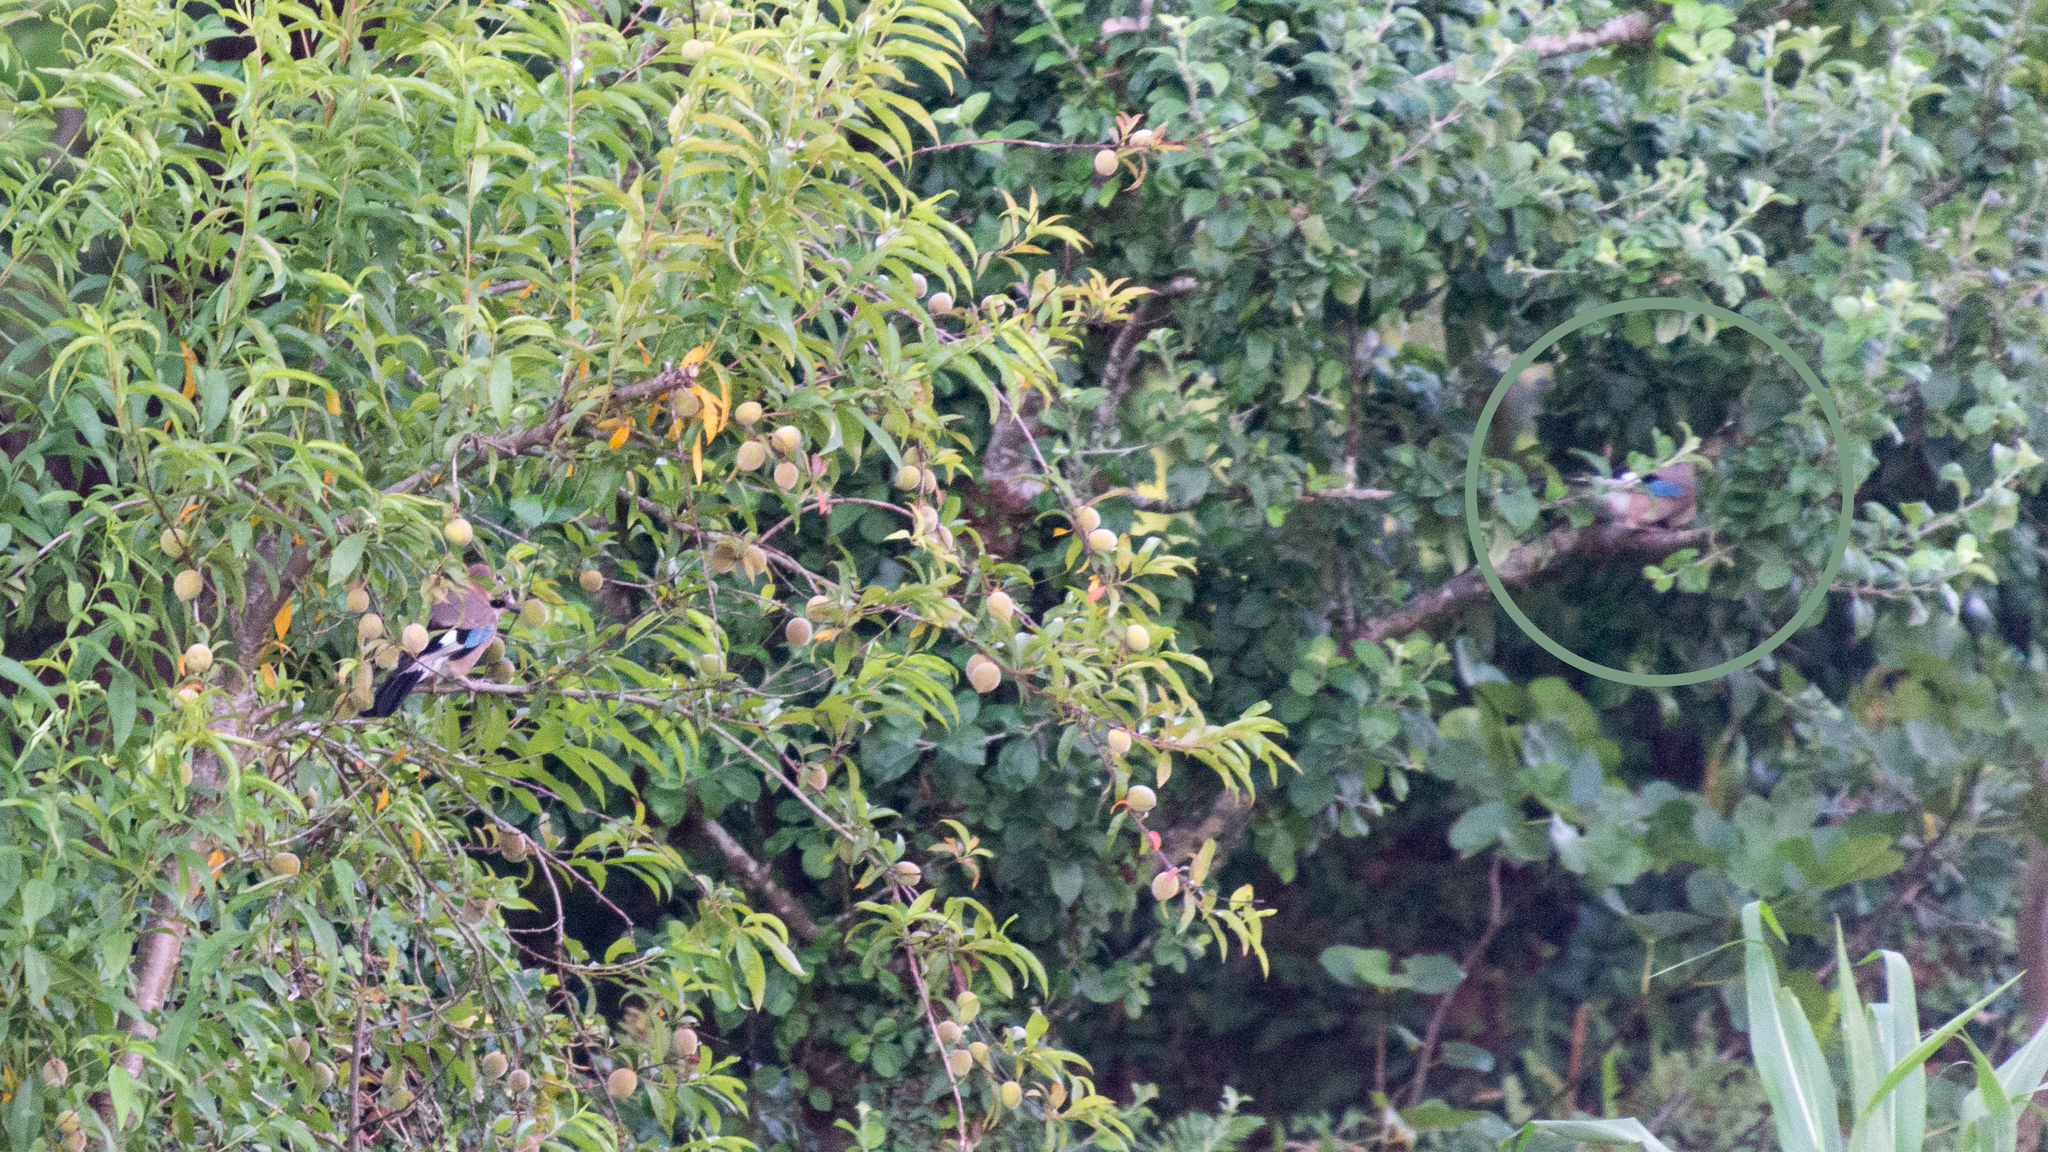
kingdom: Animalia
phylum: Chordata
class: Aves
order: Passeriformes
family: Corvidae
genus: Garrulus
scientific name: Garrulus glandarius
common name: Eurasian jay
